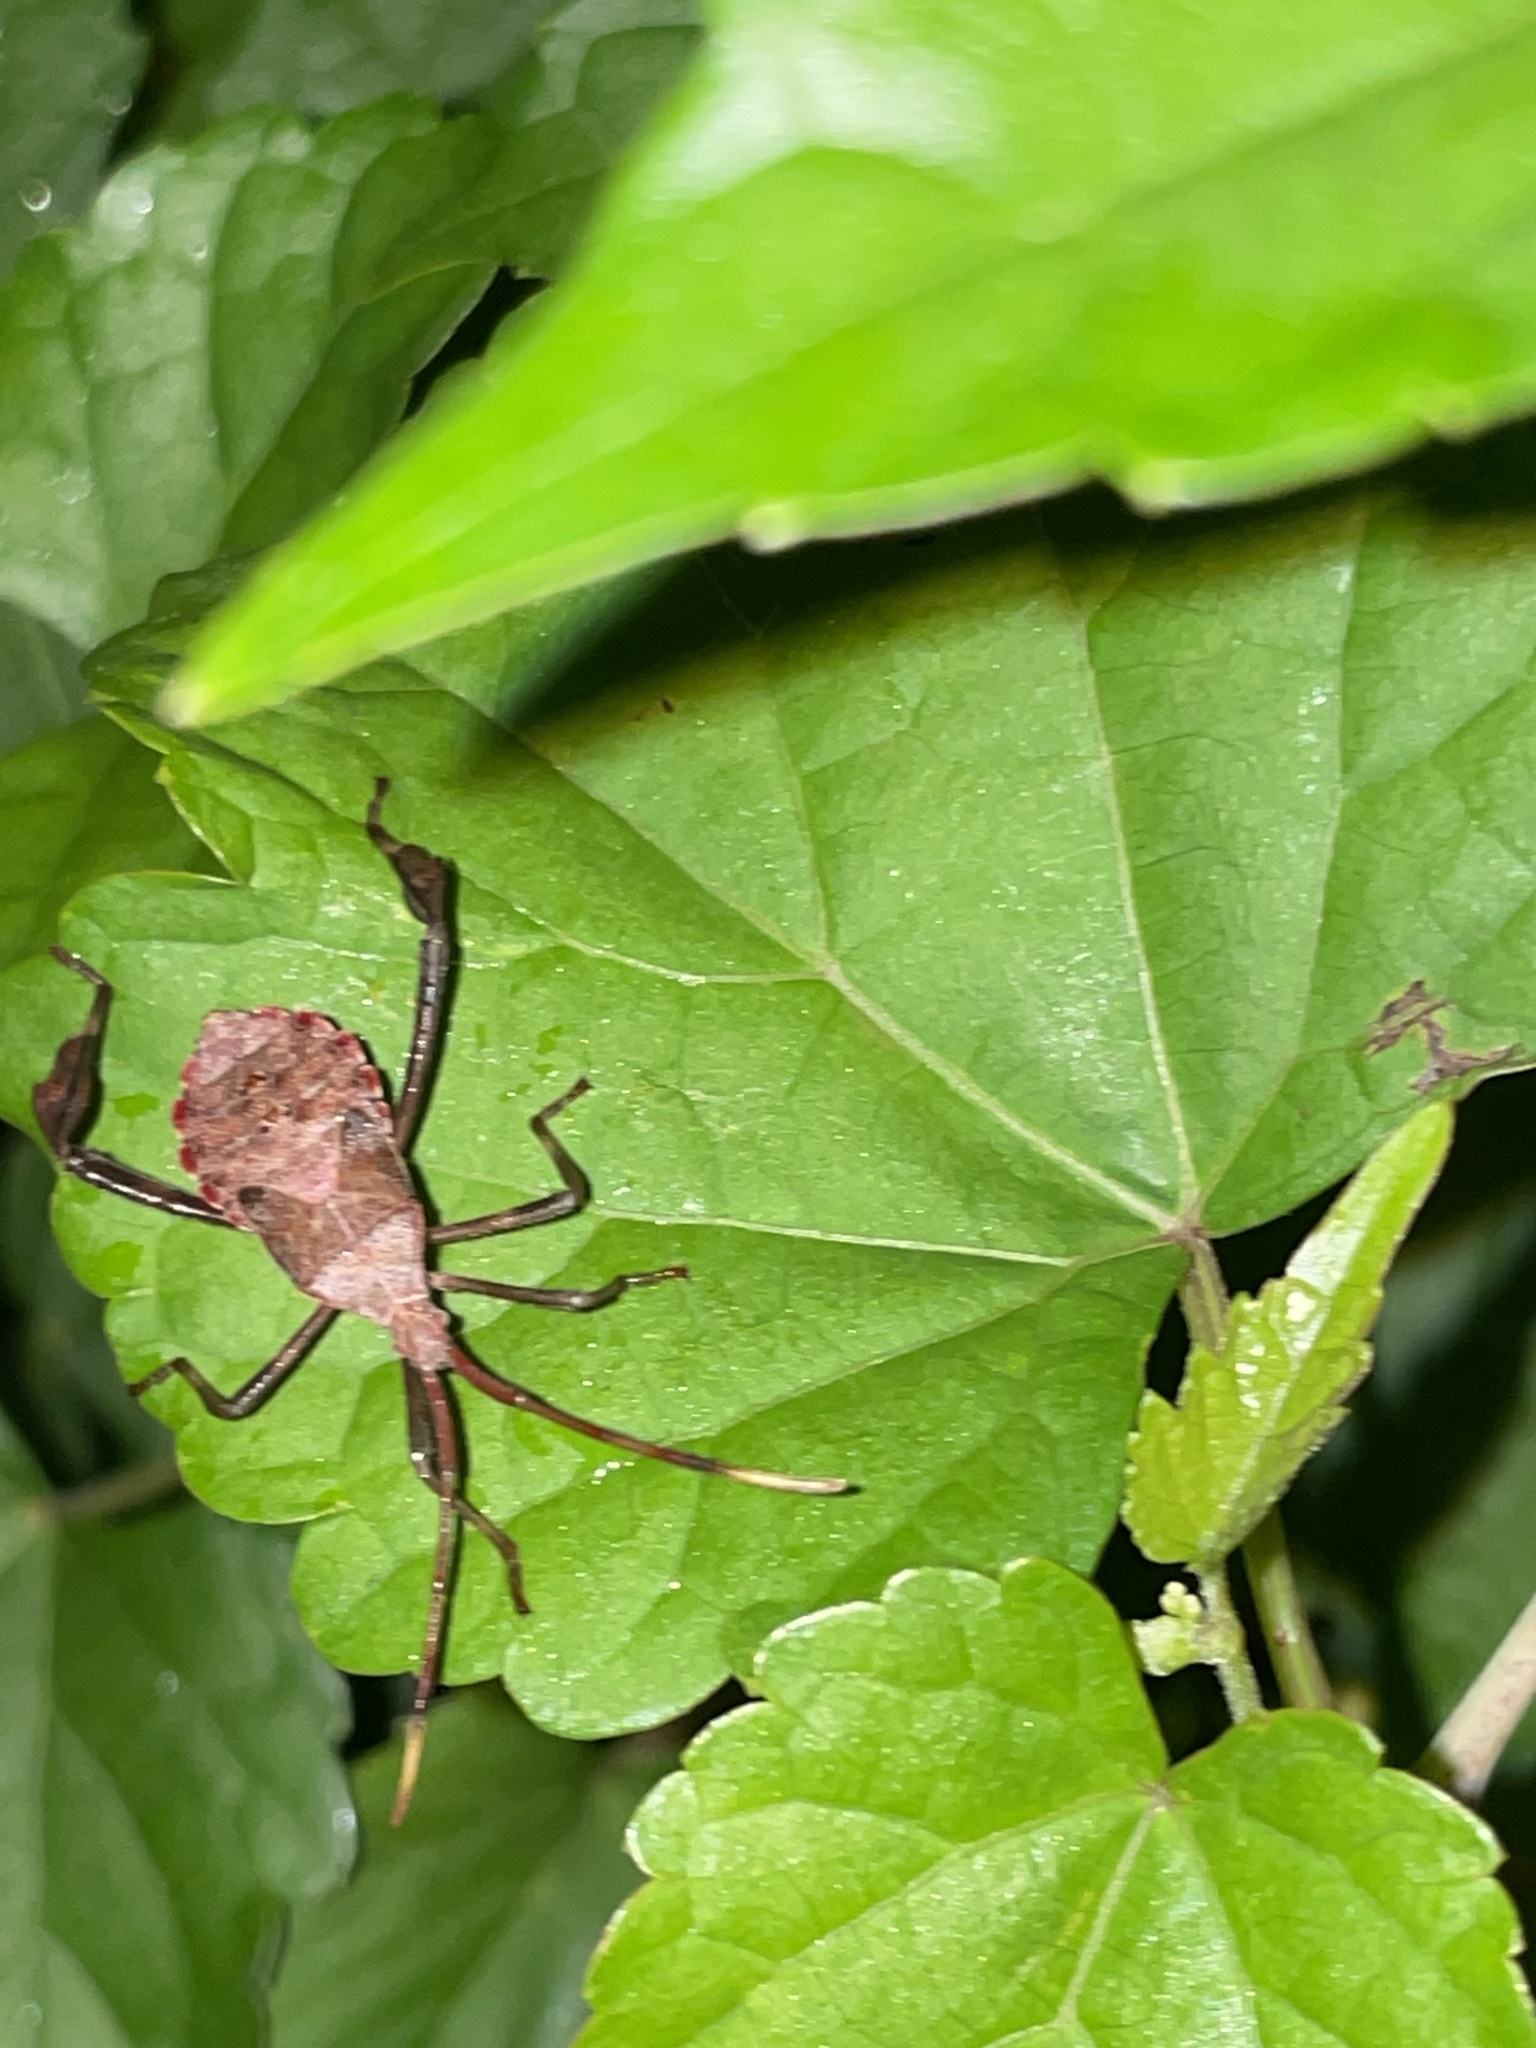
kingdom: Animalia
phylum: Arthropoda
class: Insecta
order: Hemiptera
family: Coreidae
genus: Acanthocephala
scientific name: Acanthocephala terminalis
